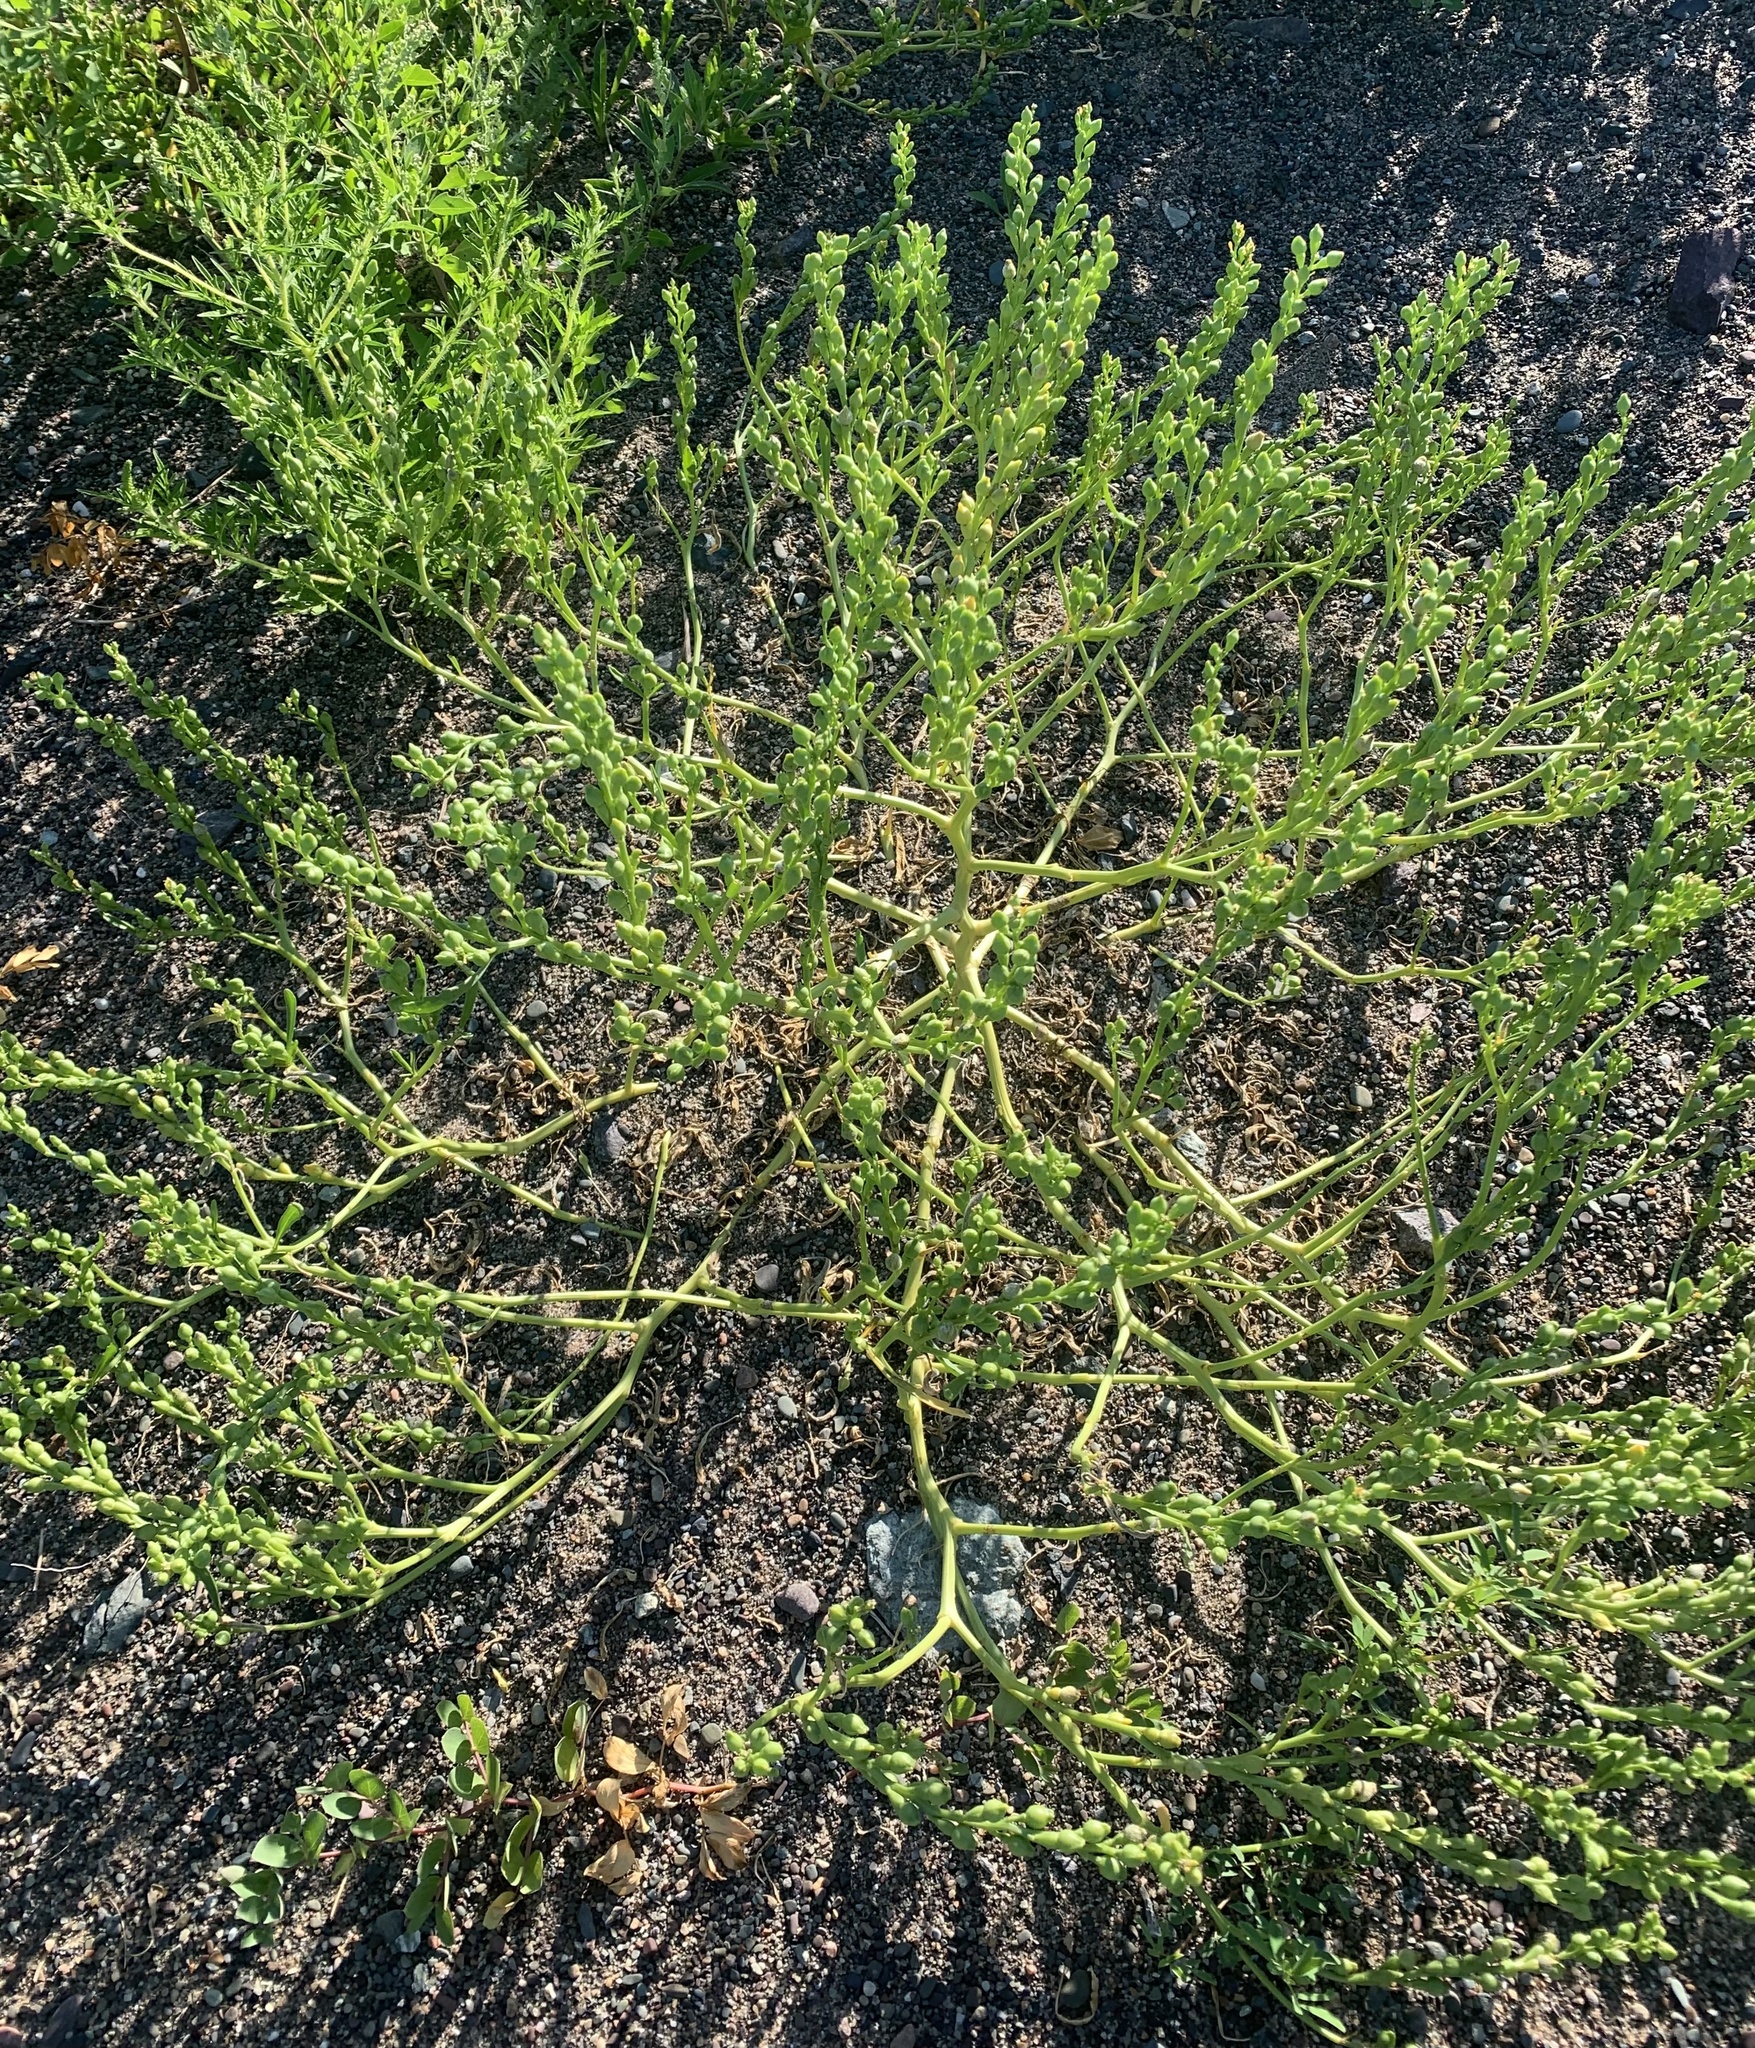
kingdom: Plantae
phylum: Tracheophyta
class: Magnoliopsida
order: Brassicales
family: Brassicaceae
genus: Cakile
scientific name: Cakile edentula
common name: American sea rocket
